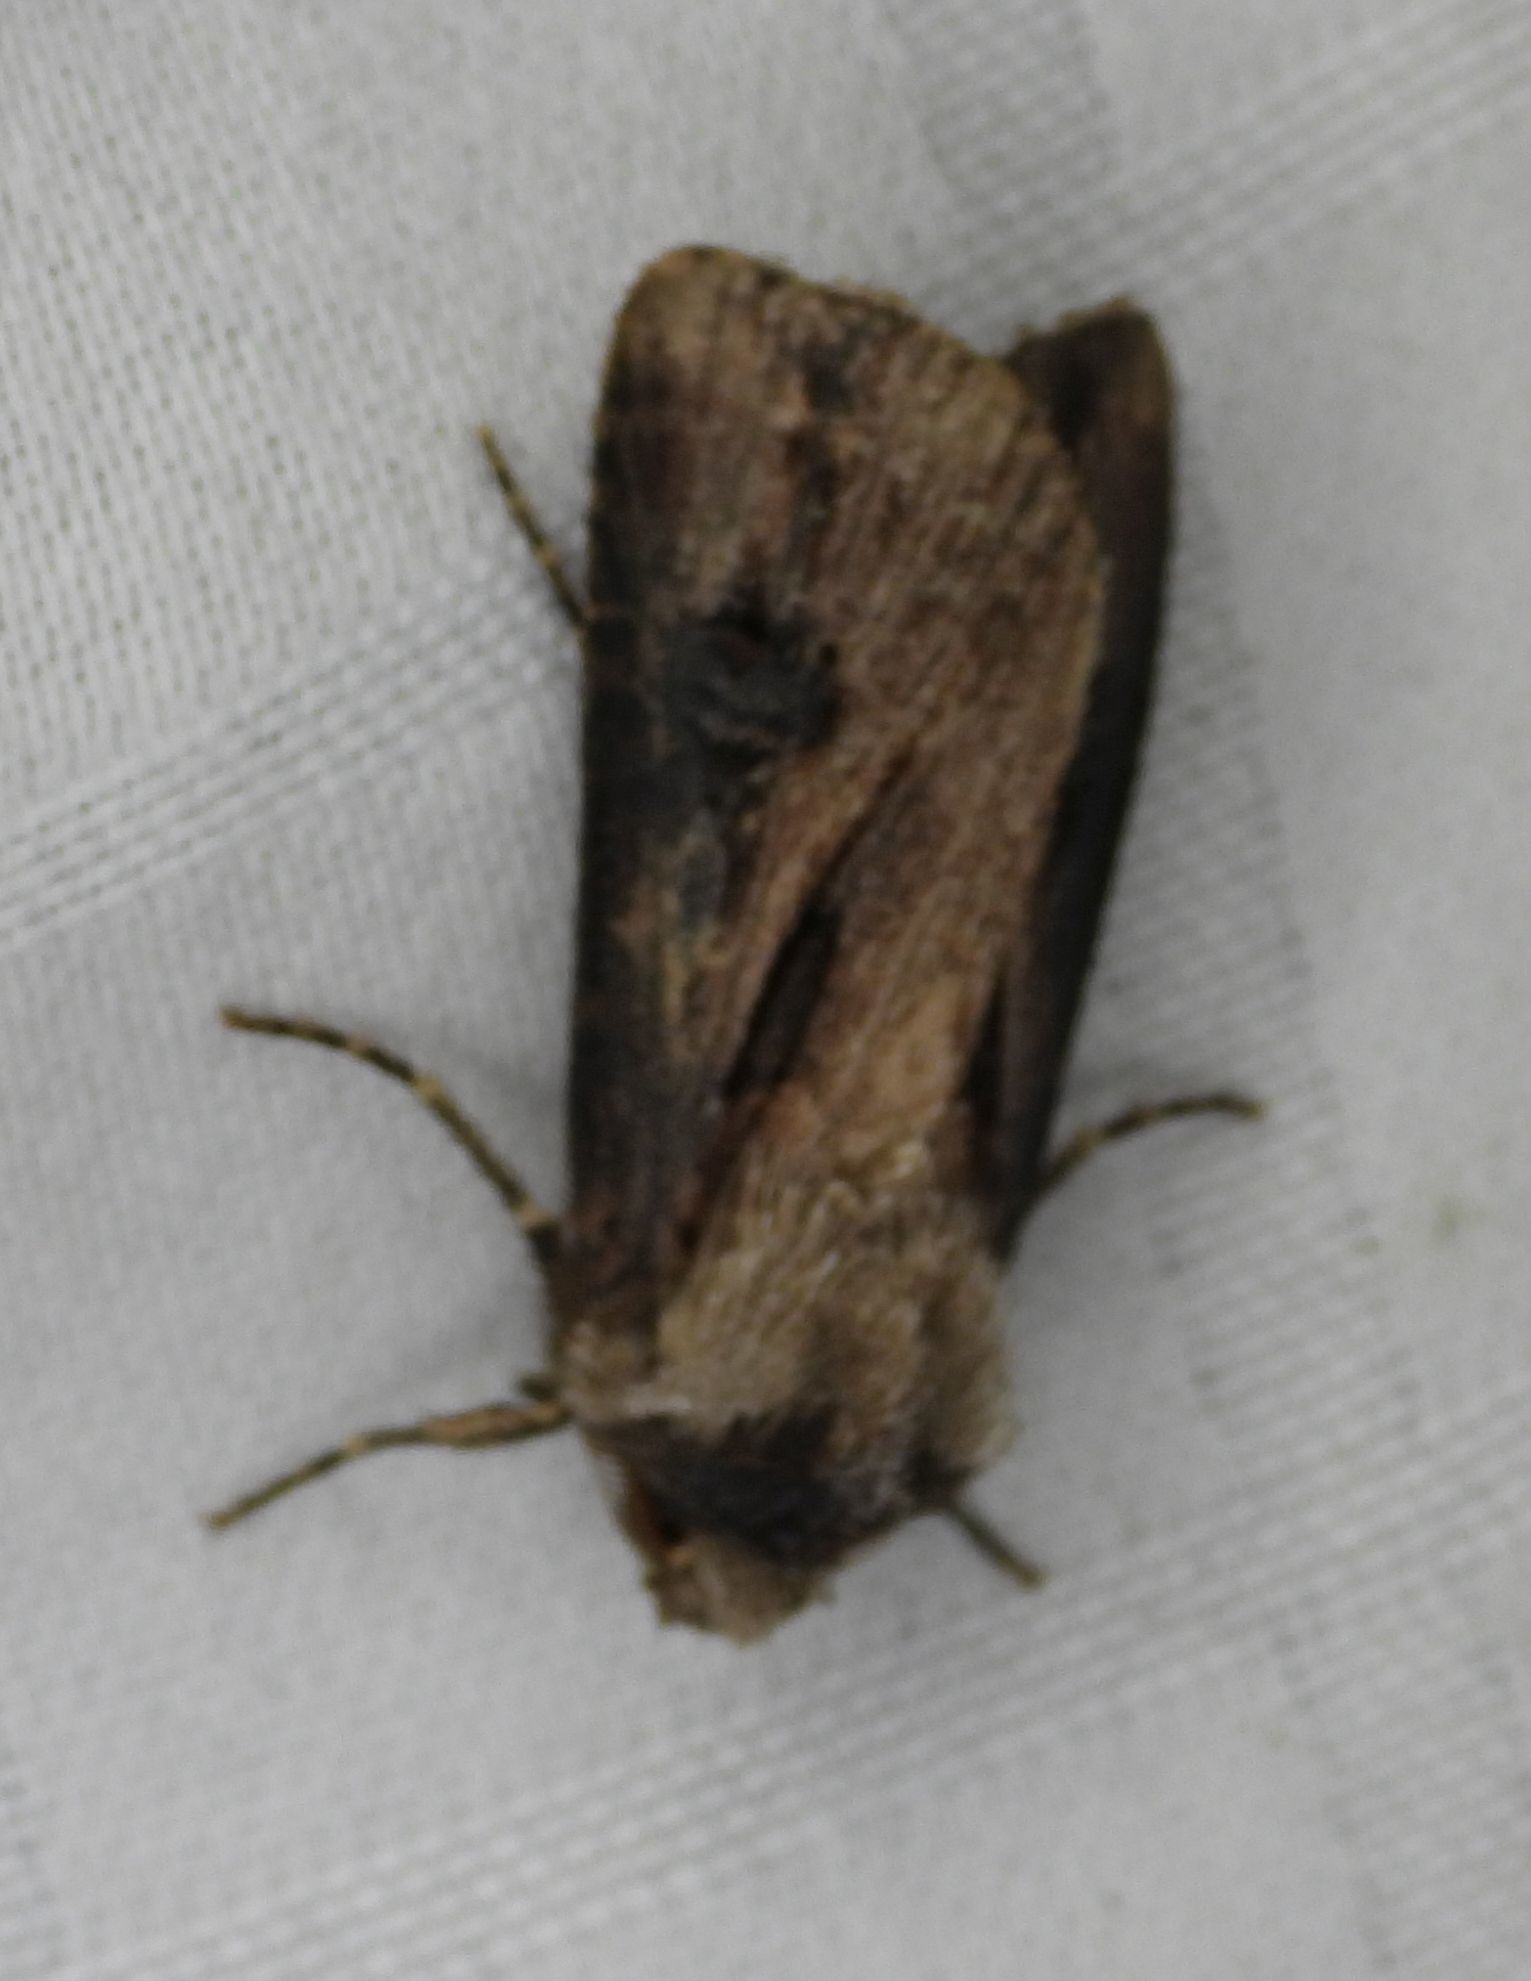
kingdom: Animalia
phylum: Arthropoda
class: Insecta
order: Lepidoptera
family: Noctuidae
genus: Agrotis
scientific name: Agrotis venerabilis
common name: Venerable dart
